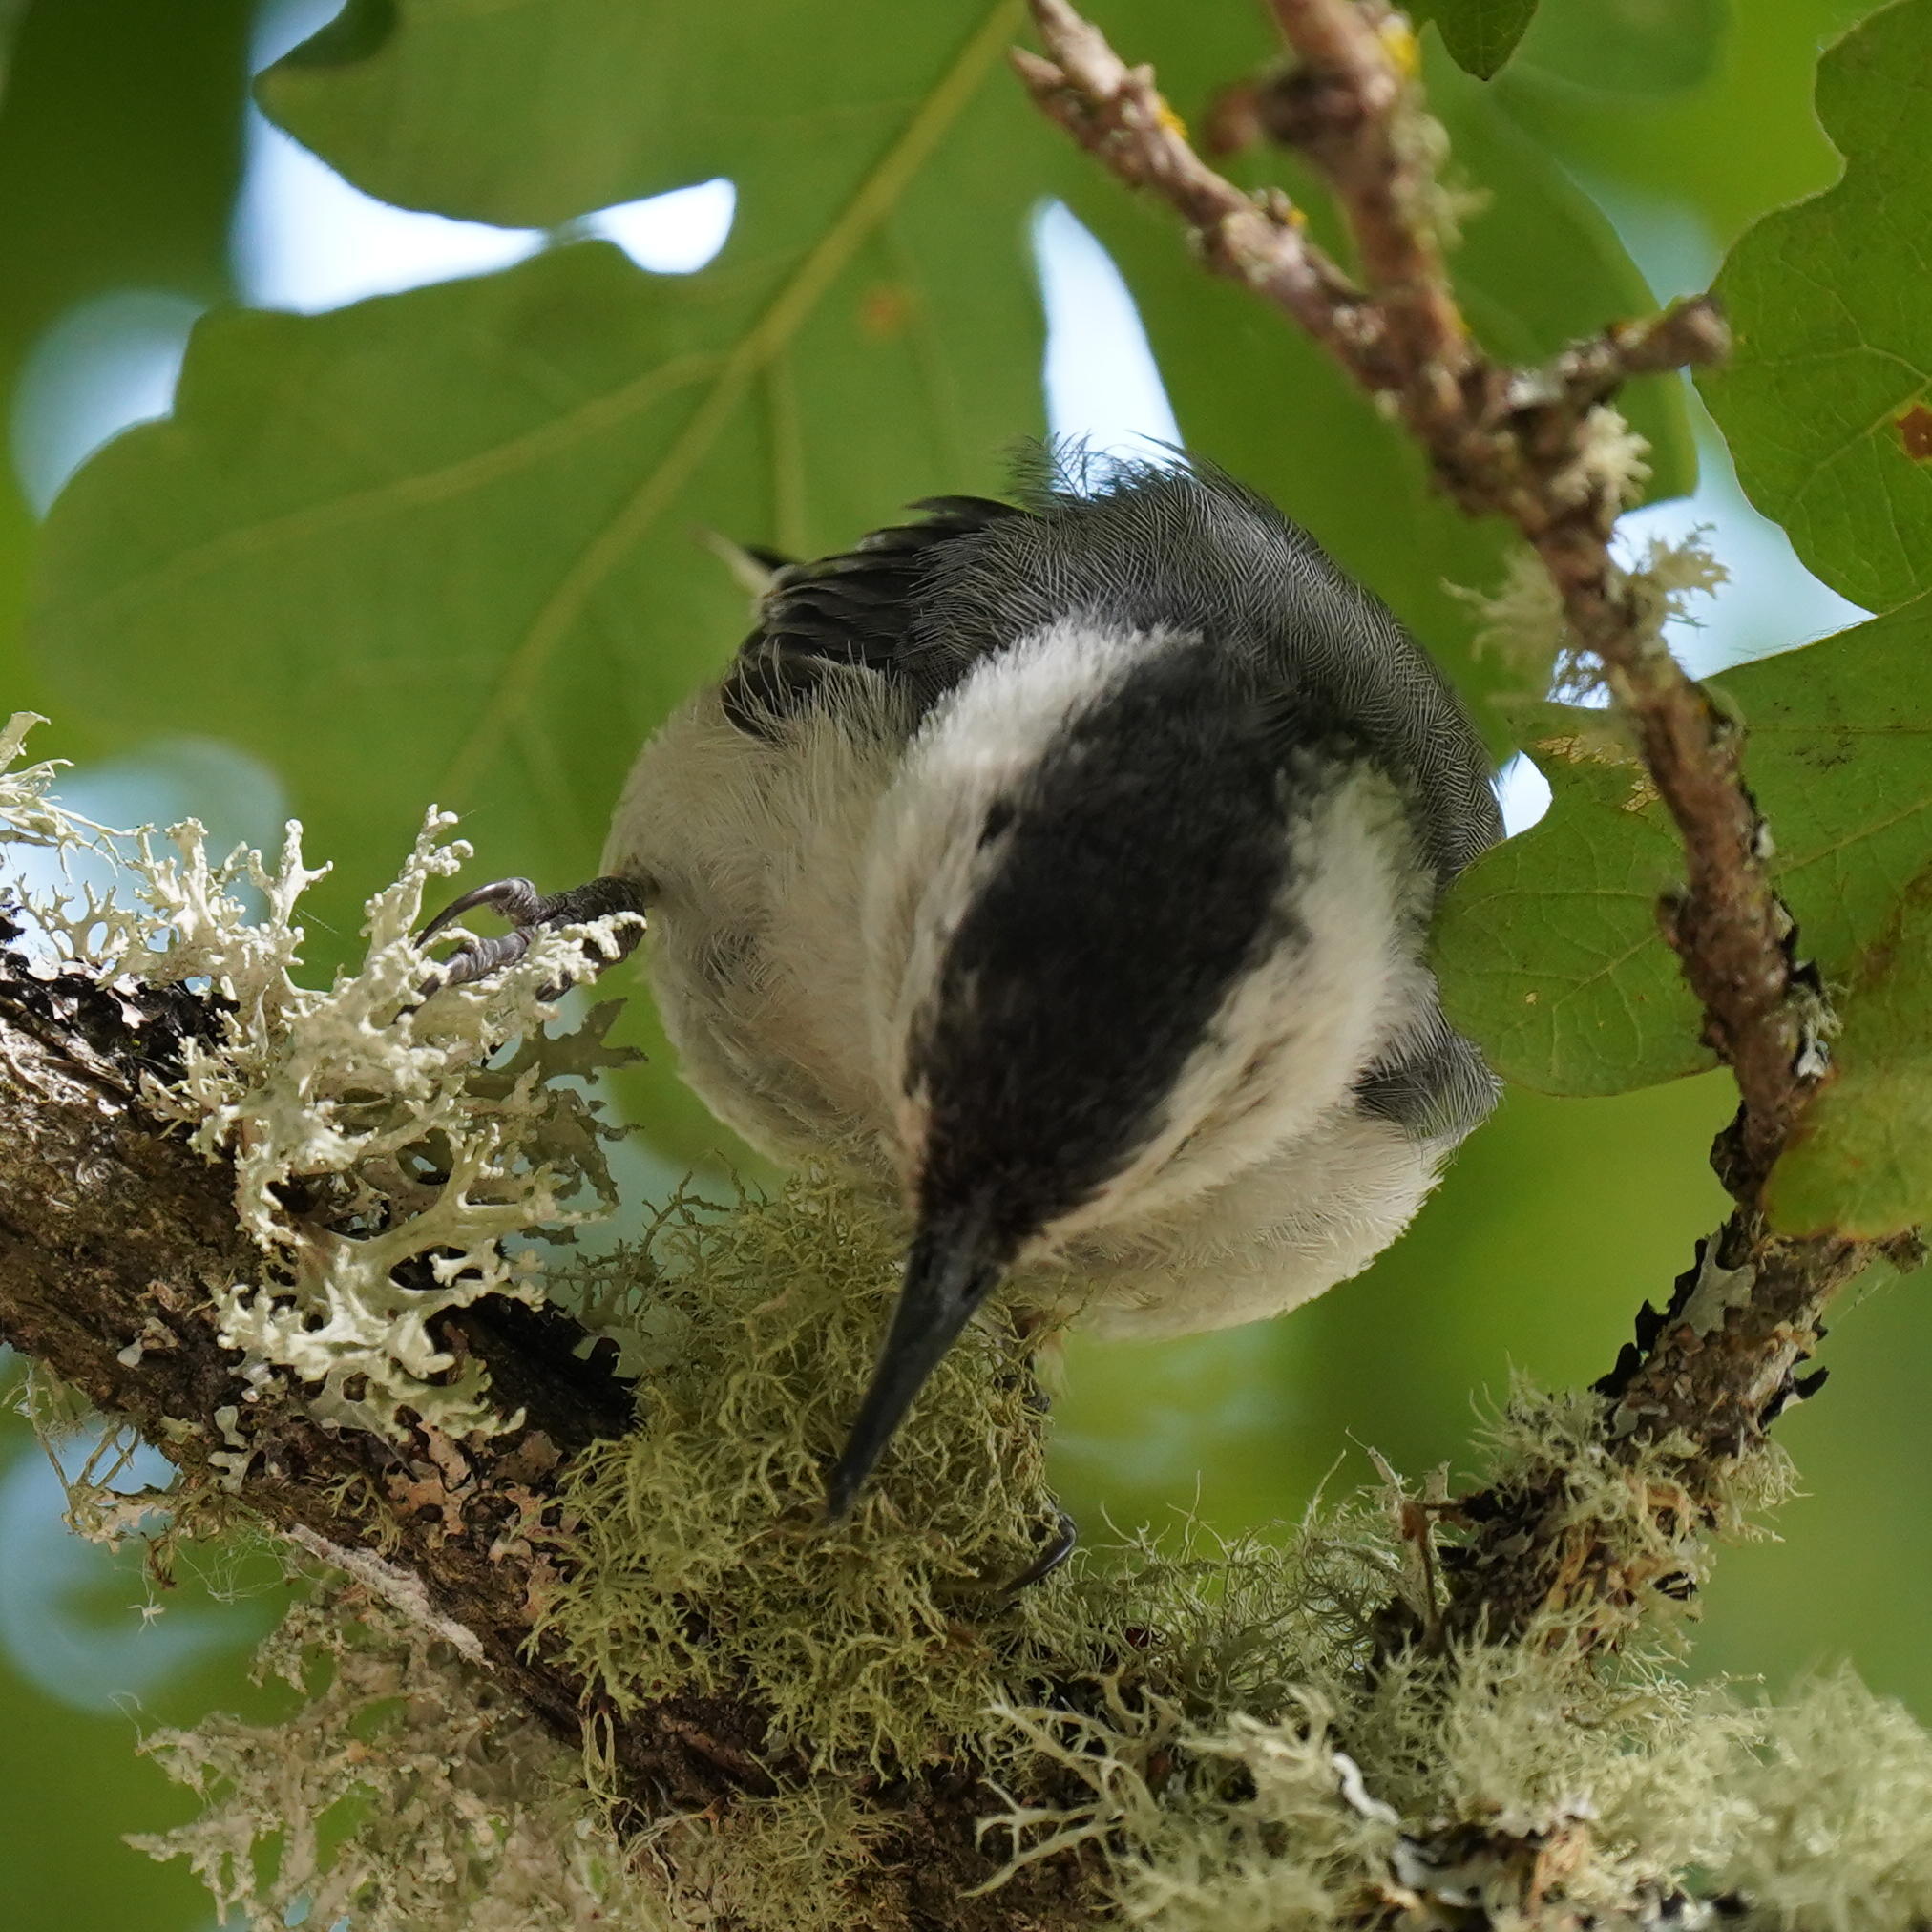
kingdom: Animalia
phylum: Chordata
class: Aves
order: Passeriformes
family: Sittidae
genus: Sitta
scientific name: Sitta carolinensis
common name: White-breasted nuthatch
